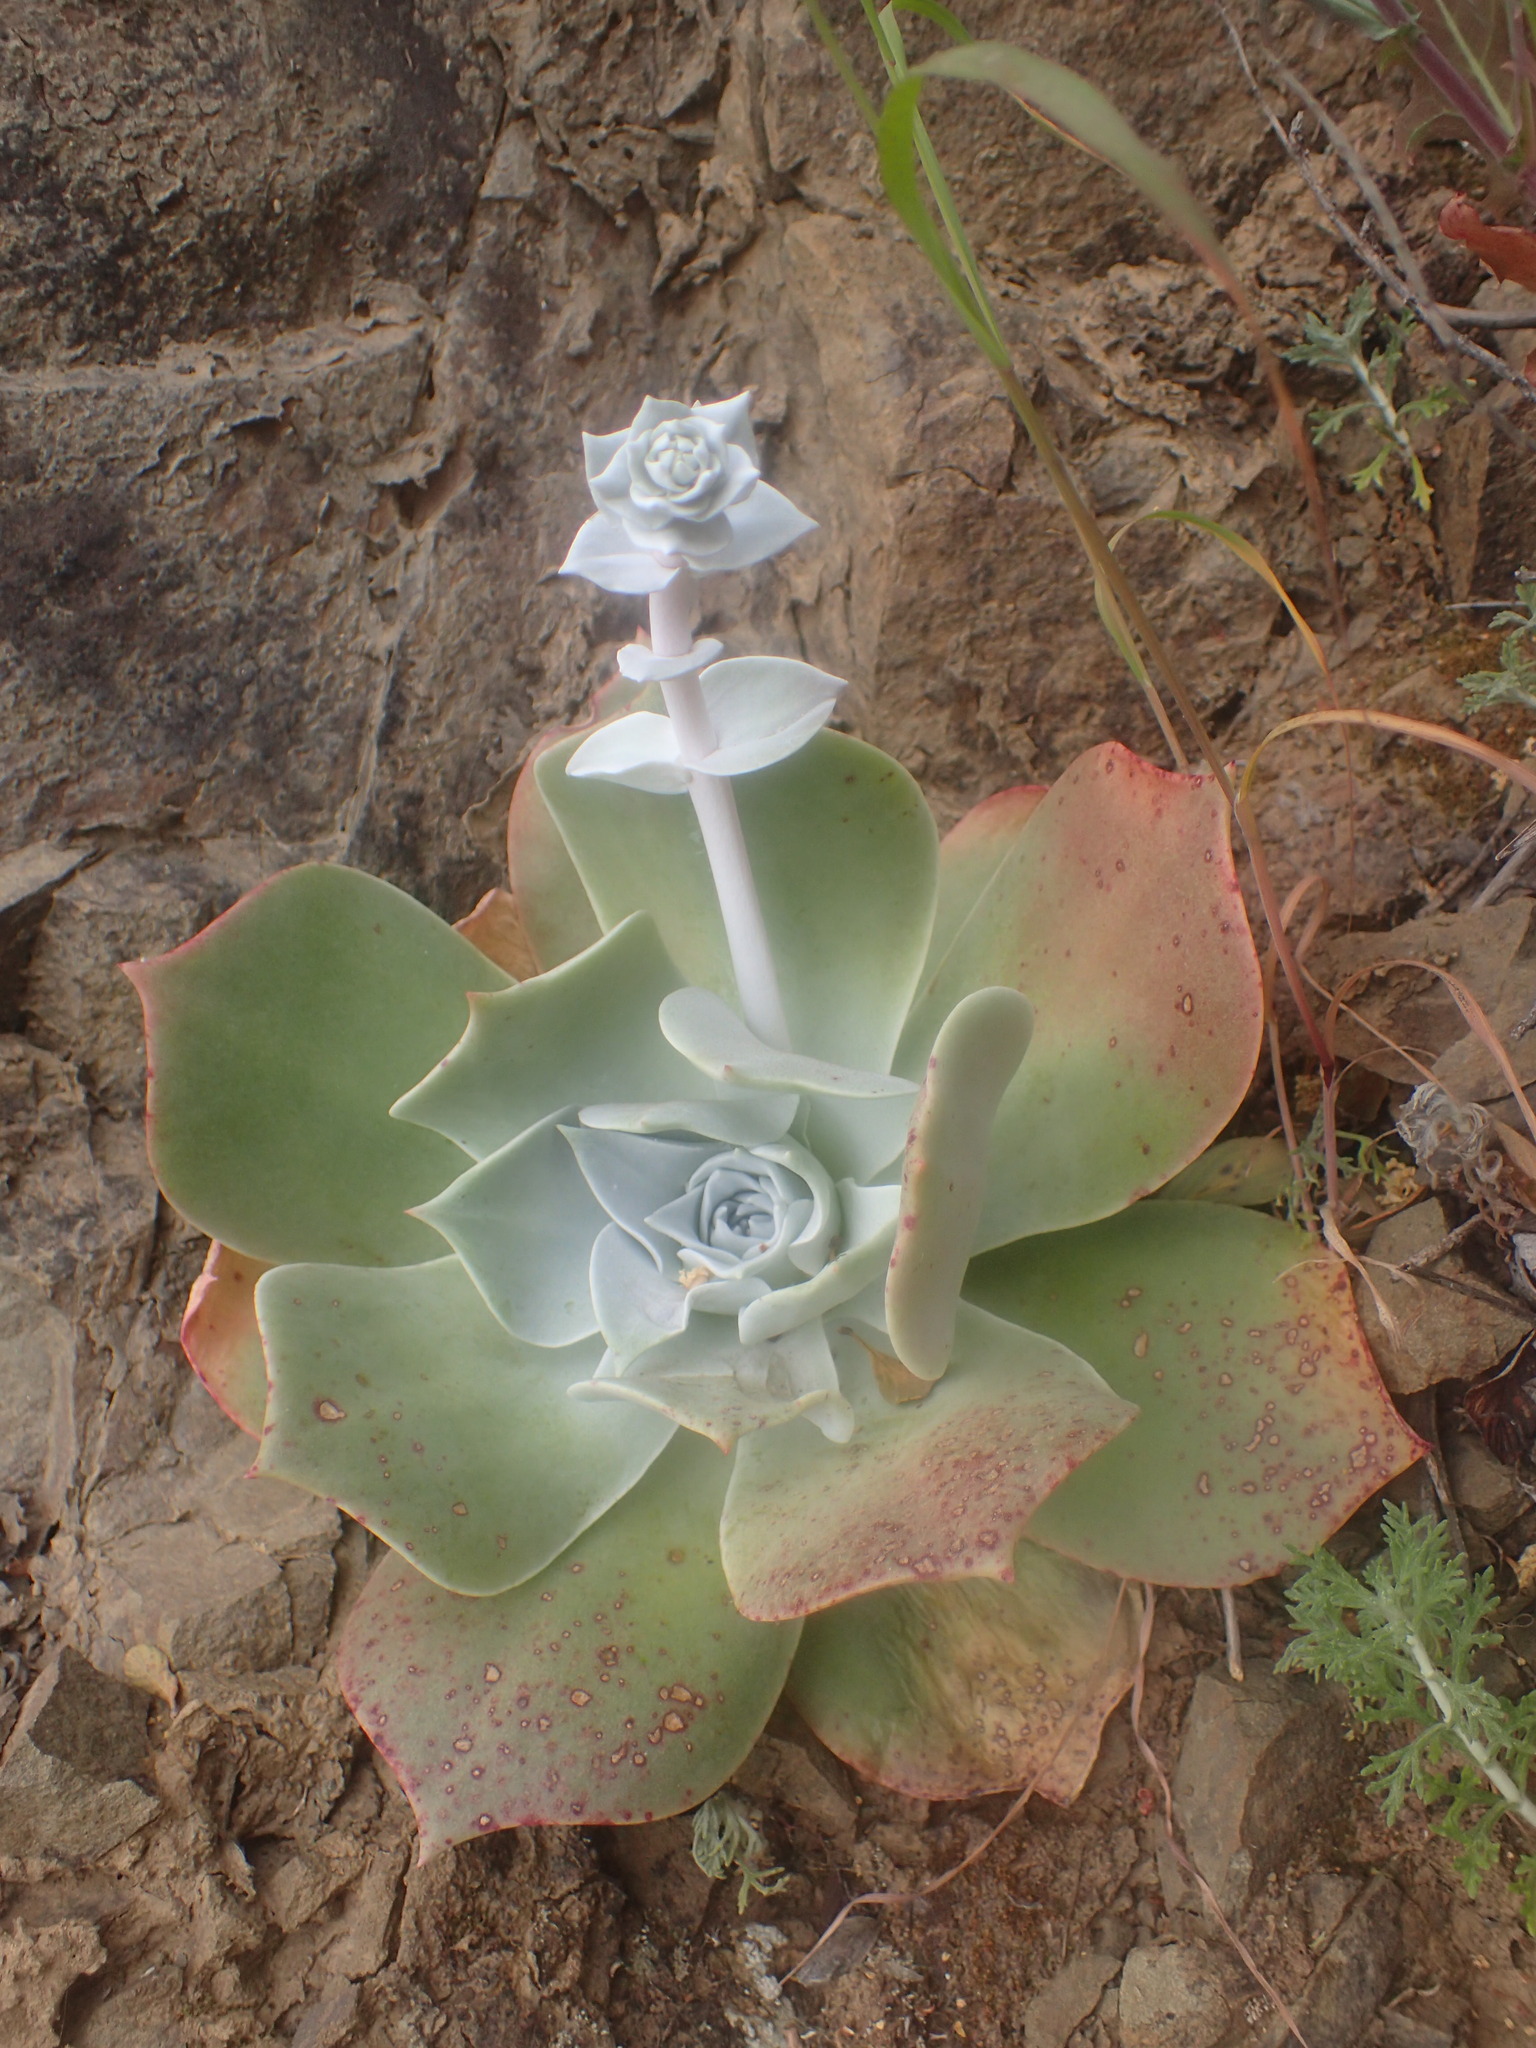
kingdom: Plantae
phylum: Tracheophyta
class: Magnoliopsida
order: Saxifragales
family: Crassulaceae
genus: Dudleya
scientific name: Dudleya pulverulenta
